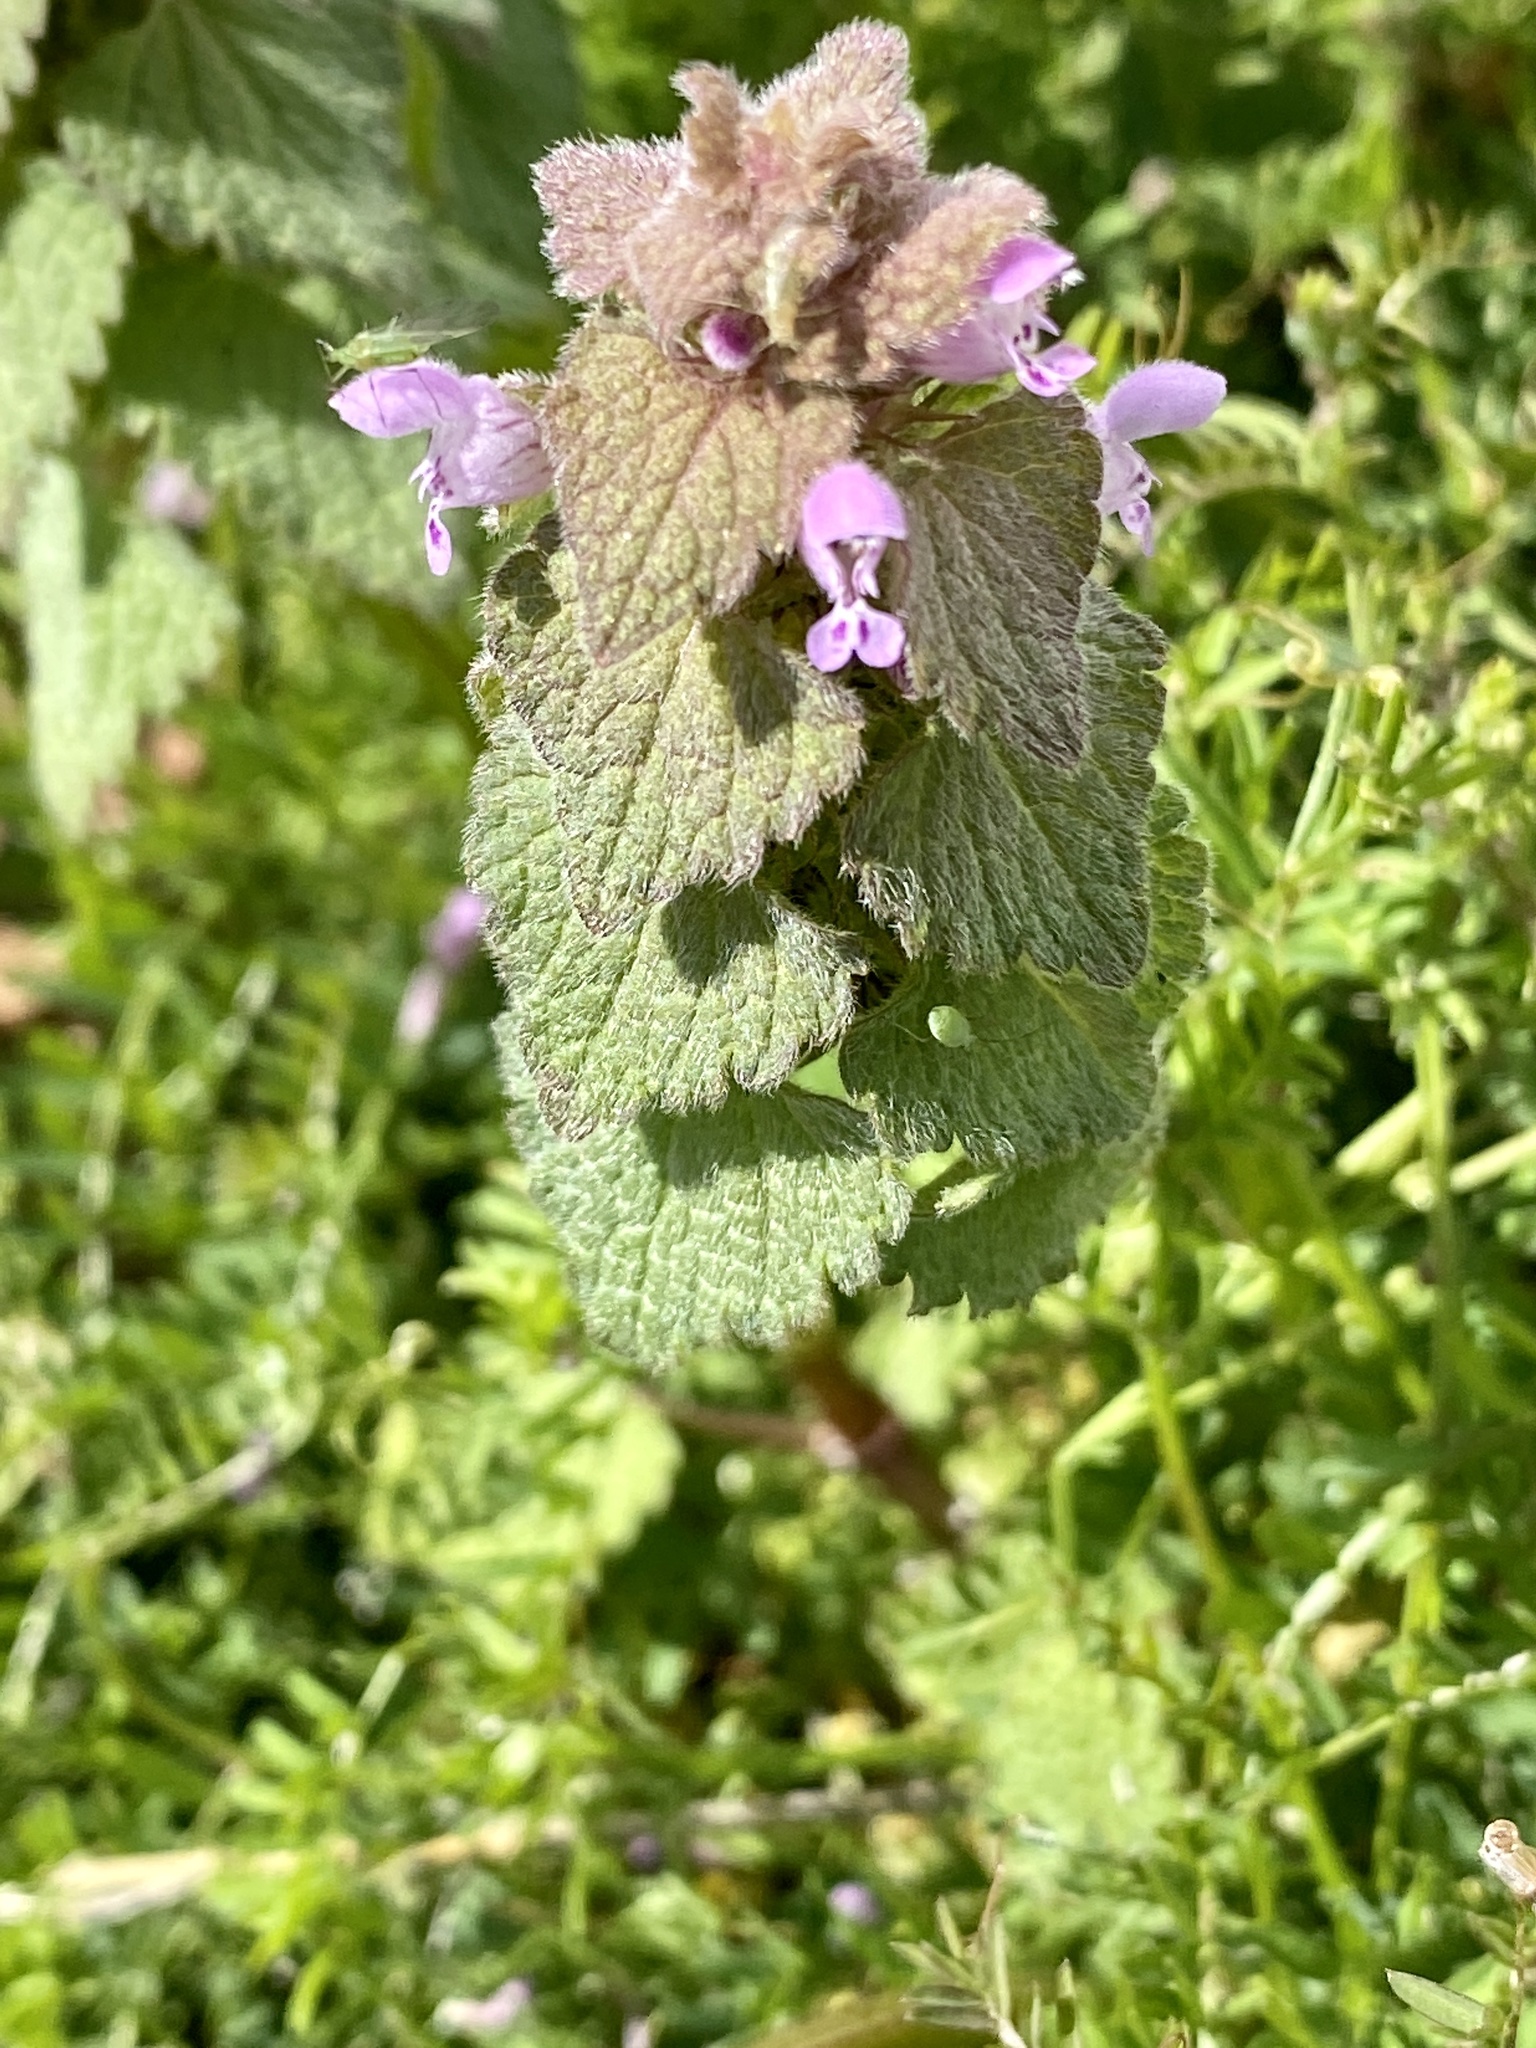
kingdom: Plantae
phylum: Tracheophyta
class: Magnoliopsida
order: Lamiales
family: Lamiaceae
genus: Lamium
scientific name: Lamium purpureum
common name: Red dead-nettle
